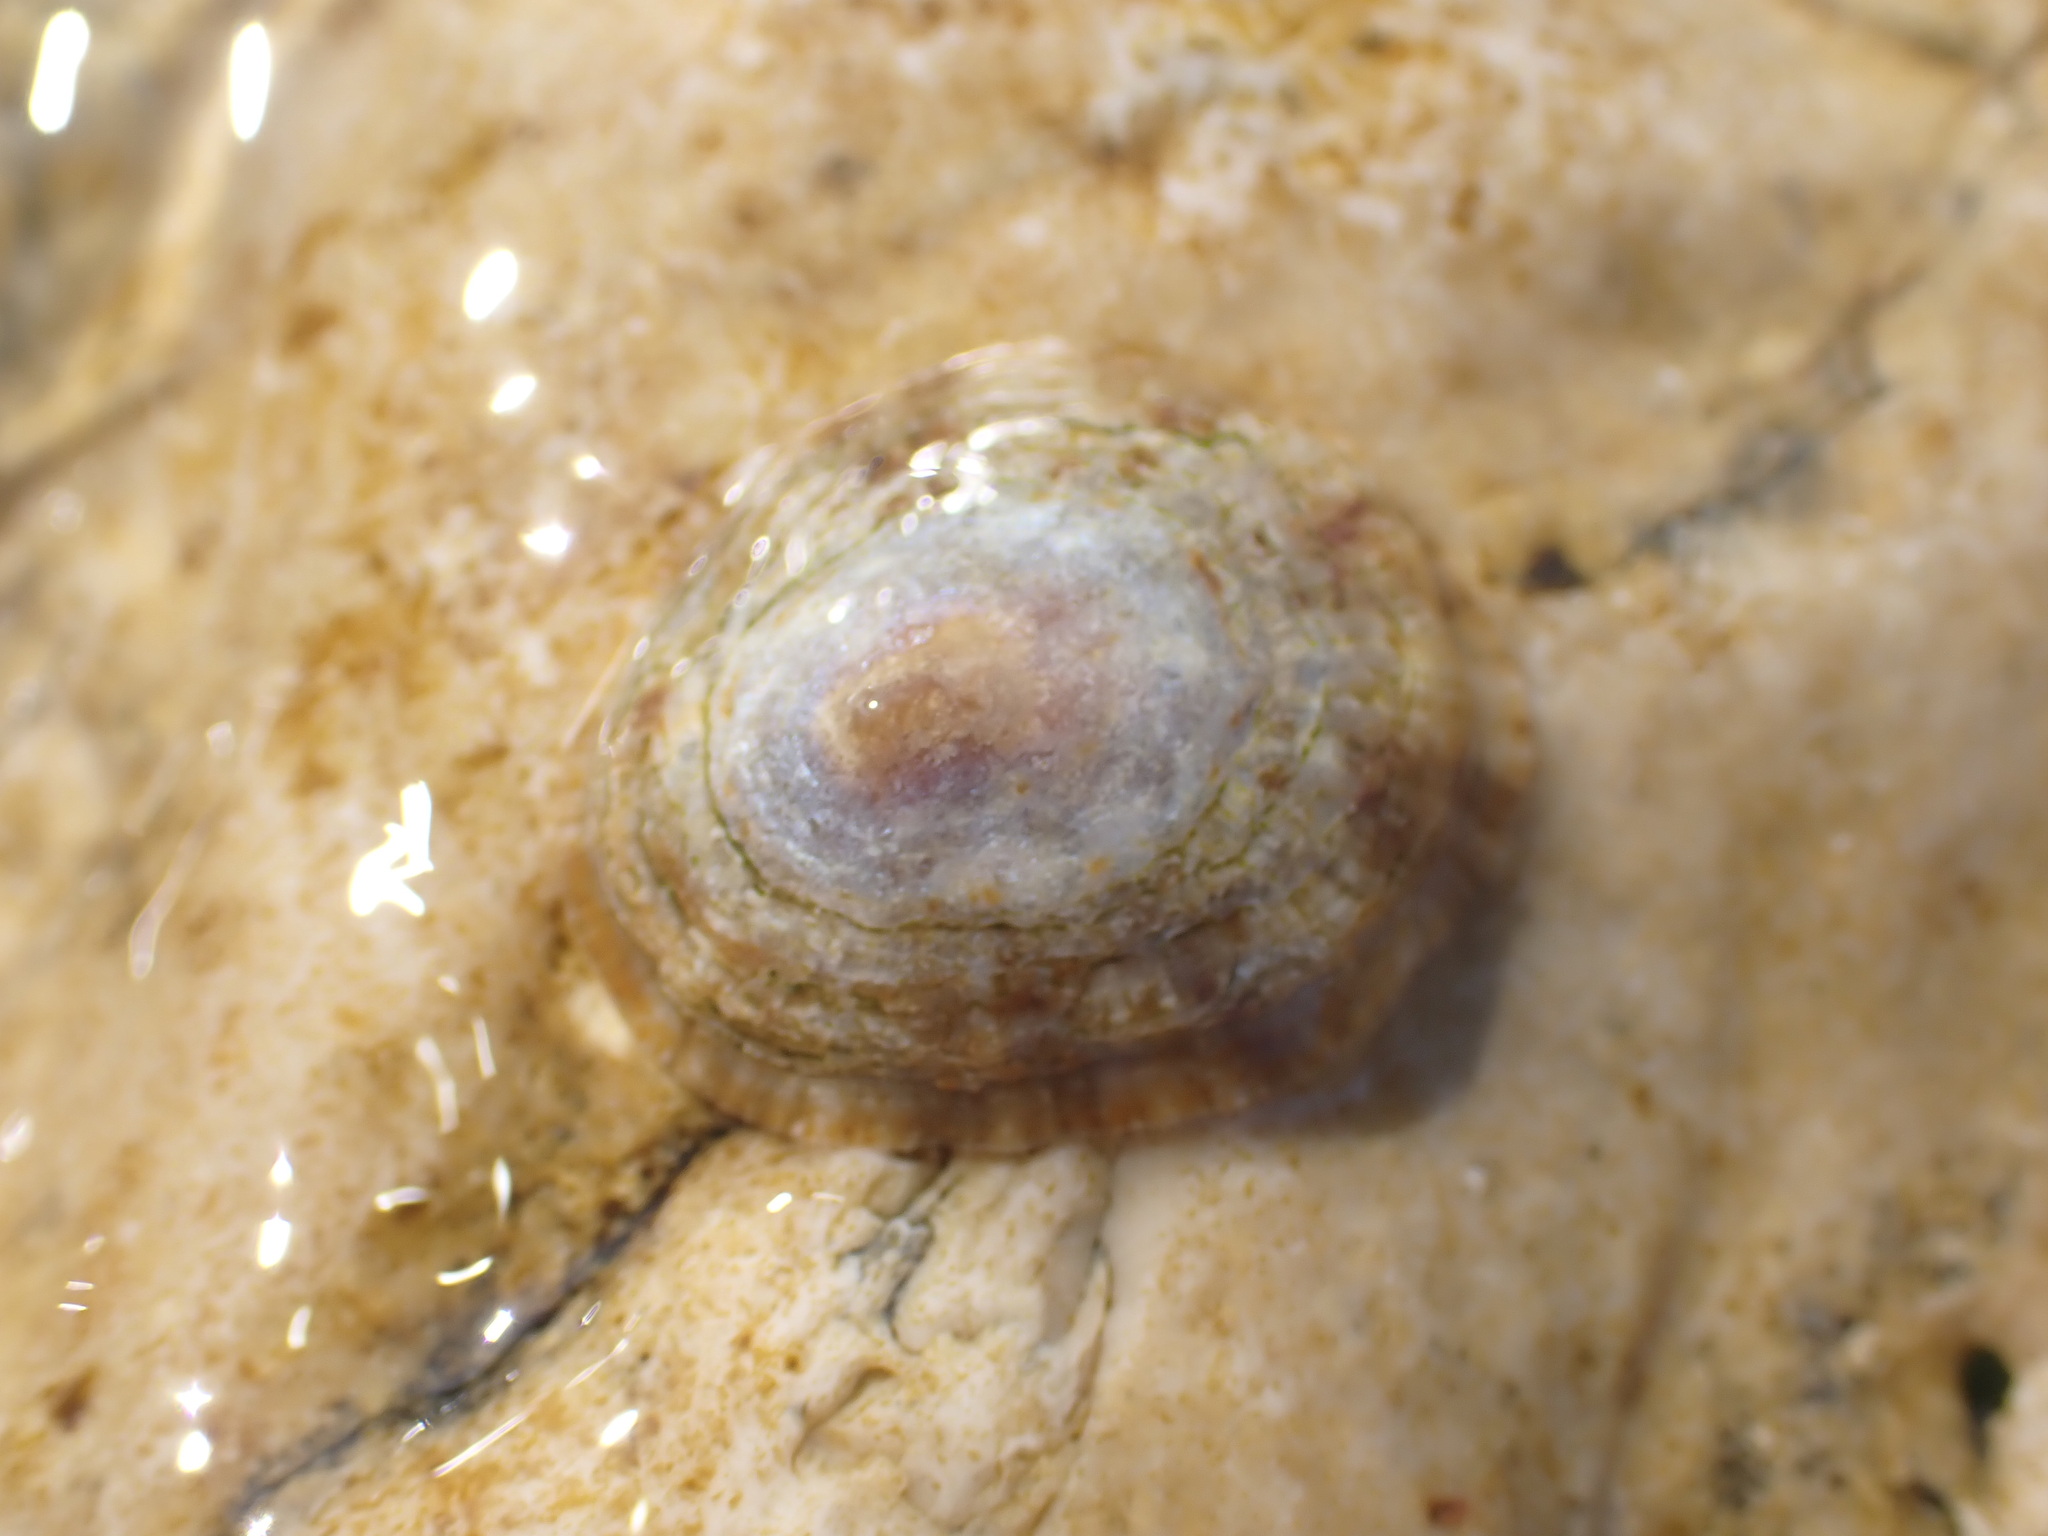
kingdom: Animalia
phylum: Mollusca
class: Gastropoda
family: Patellidae
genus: Patella
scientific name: Patella caerulea
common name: Mediterranean limpet
